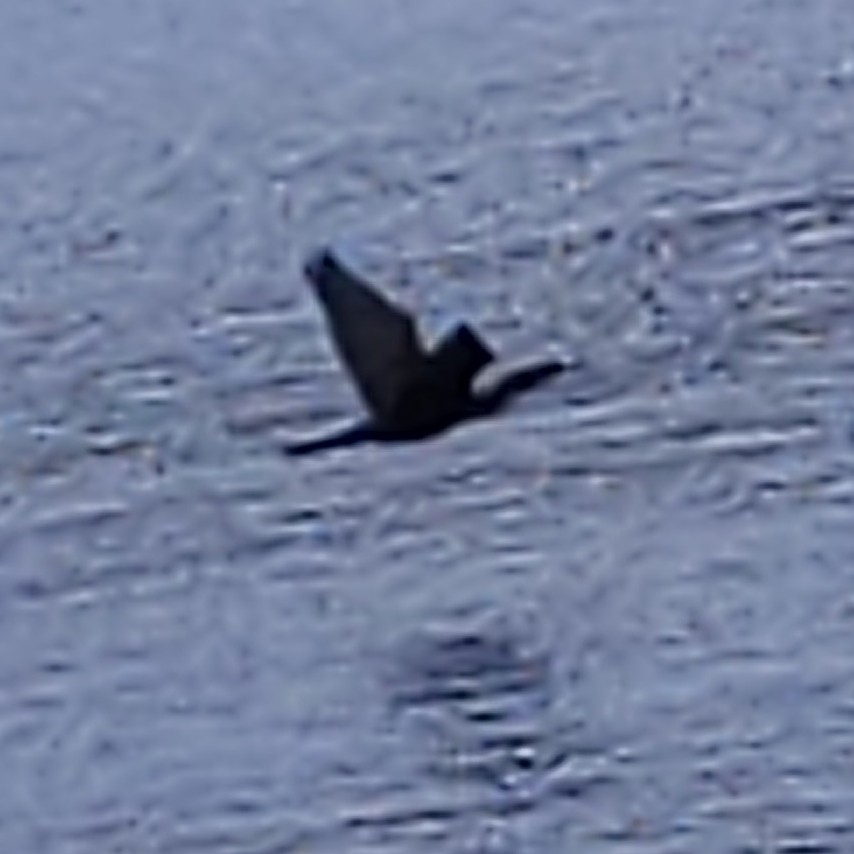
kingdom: Animalia
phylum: Chordata
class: Aves
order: Suliformes
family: Phalacrocoracidae
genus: Phalacrocorax
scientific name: Phalacrocorax auritus
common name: Double-crested cormorant
